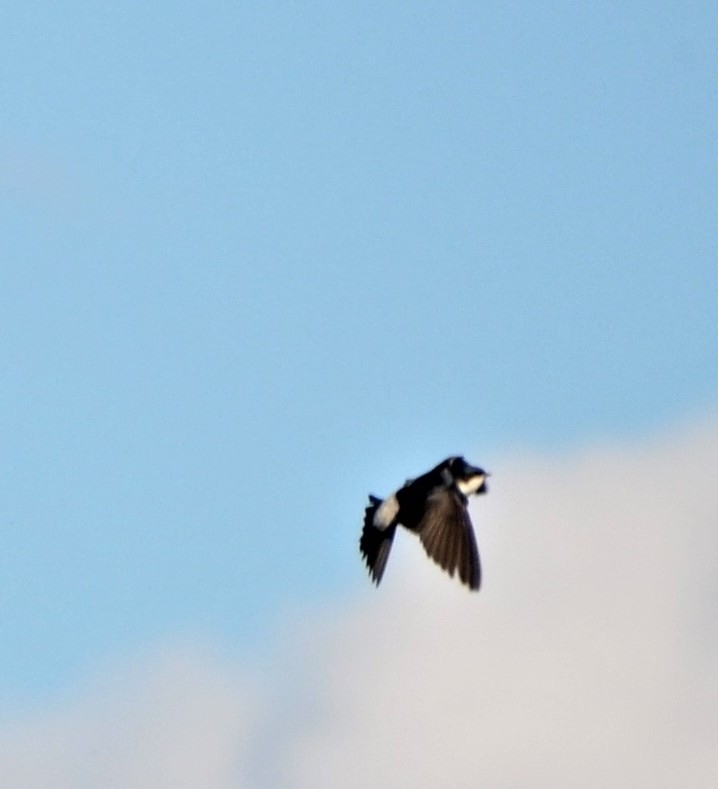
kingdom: Animalia
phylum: Chordata
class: Aves
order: Passeriformes
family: Hirundinidae
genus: Delichon
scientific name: Delichon urbicum
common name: Common house martin
